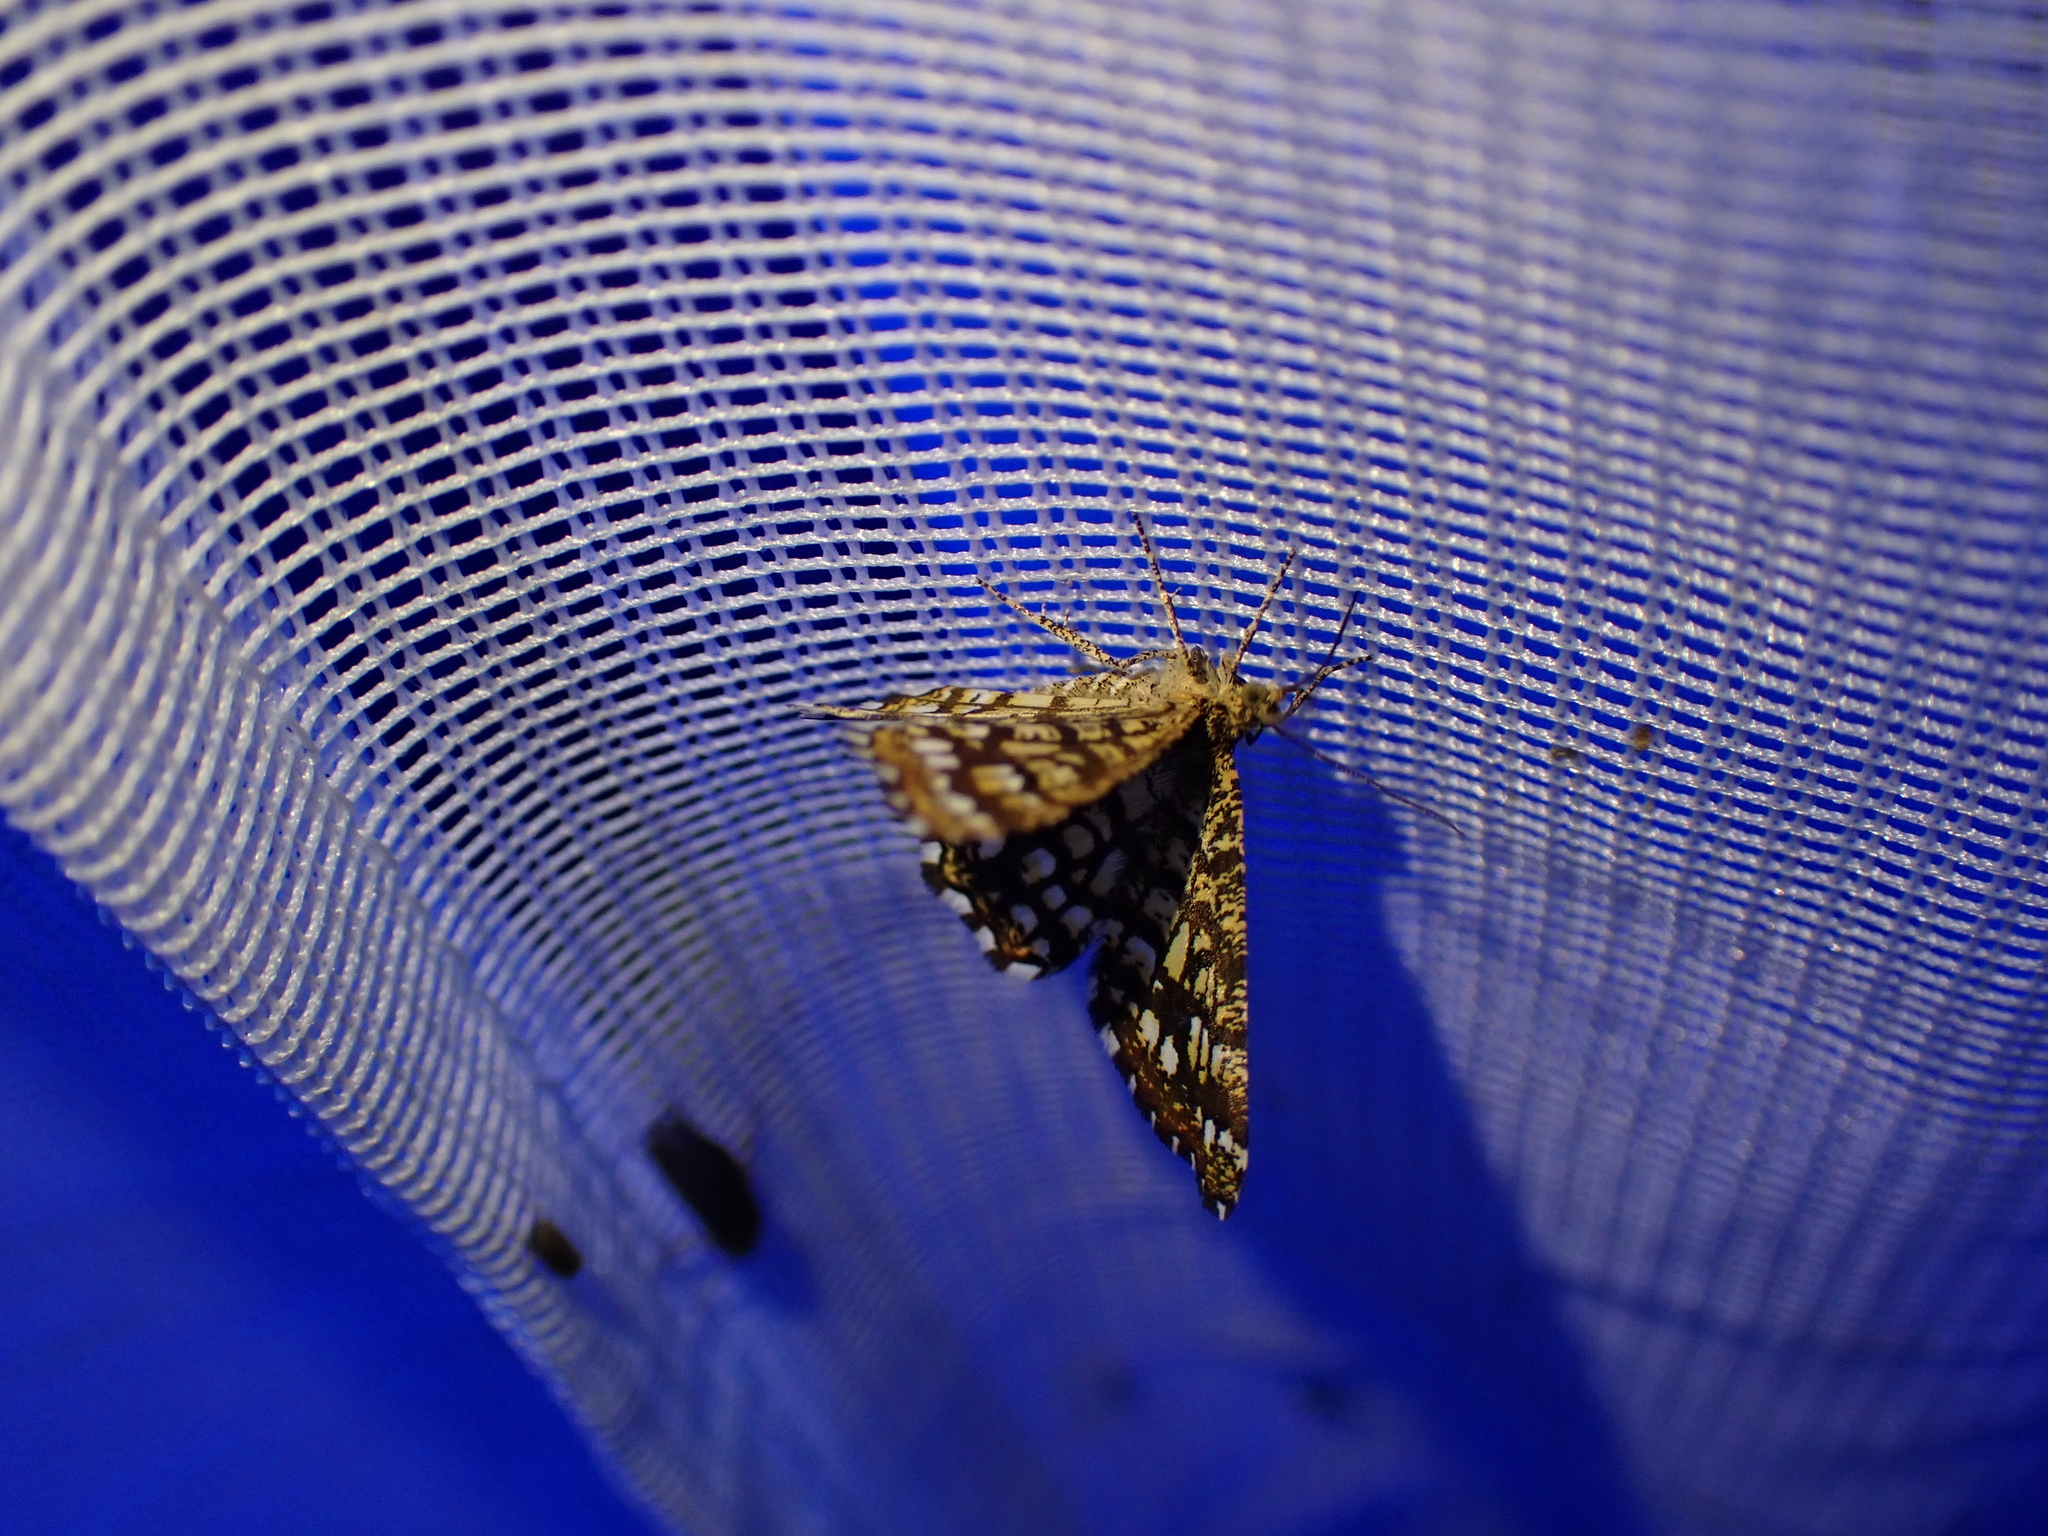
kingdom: Animalia
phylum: Arthropoda
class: Insecta
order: Lepidoptera
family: Geometridae
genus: Chiasmia
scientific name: Chiasmia clathrata
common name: Latticed heath
